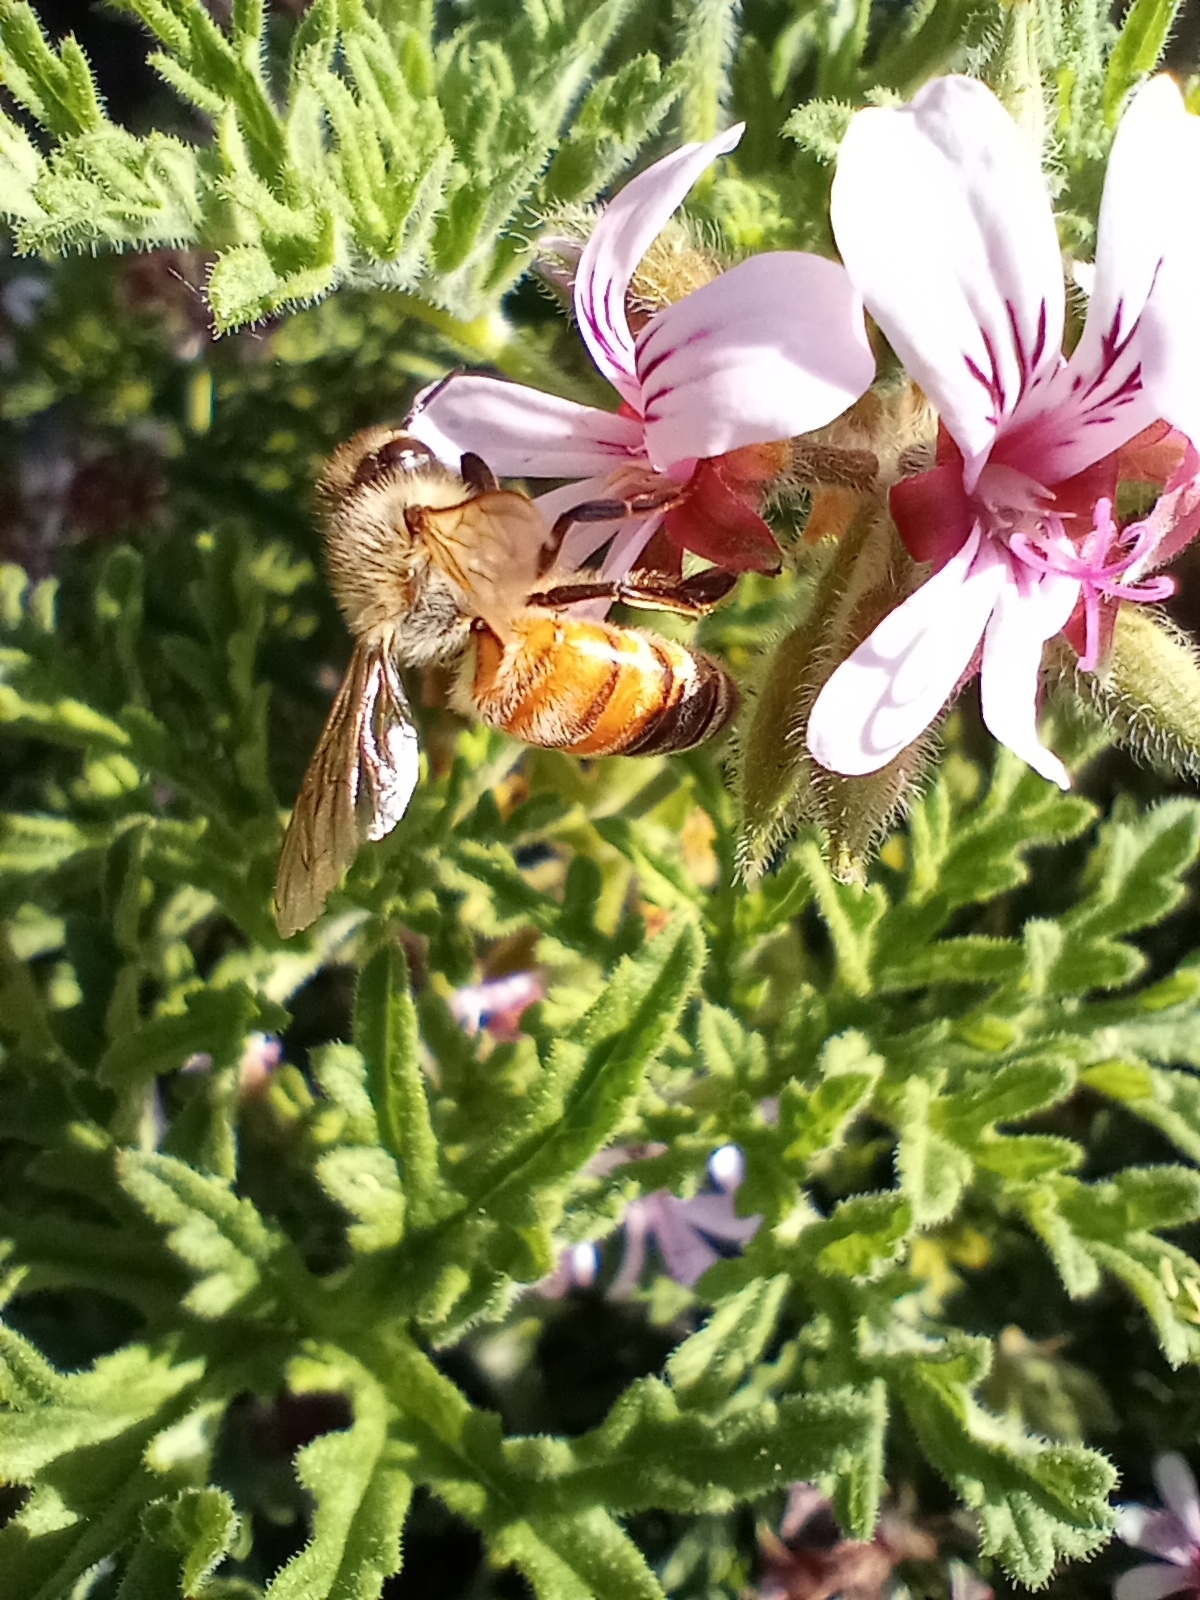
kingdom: Animalia
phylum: Arthropoda
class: Insecta
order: Hymenoptera
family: Apidae
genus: Apis
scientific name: Apis mellifera
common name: Honey bee
